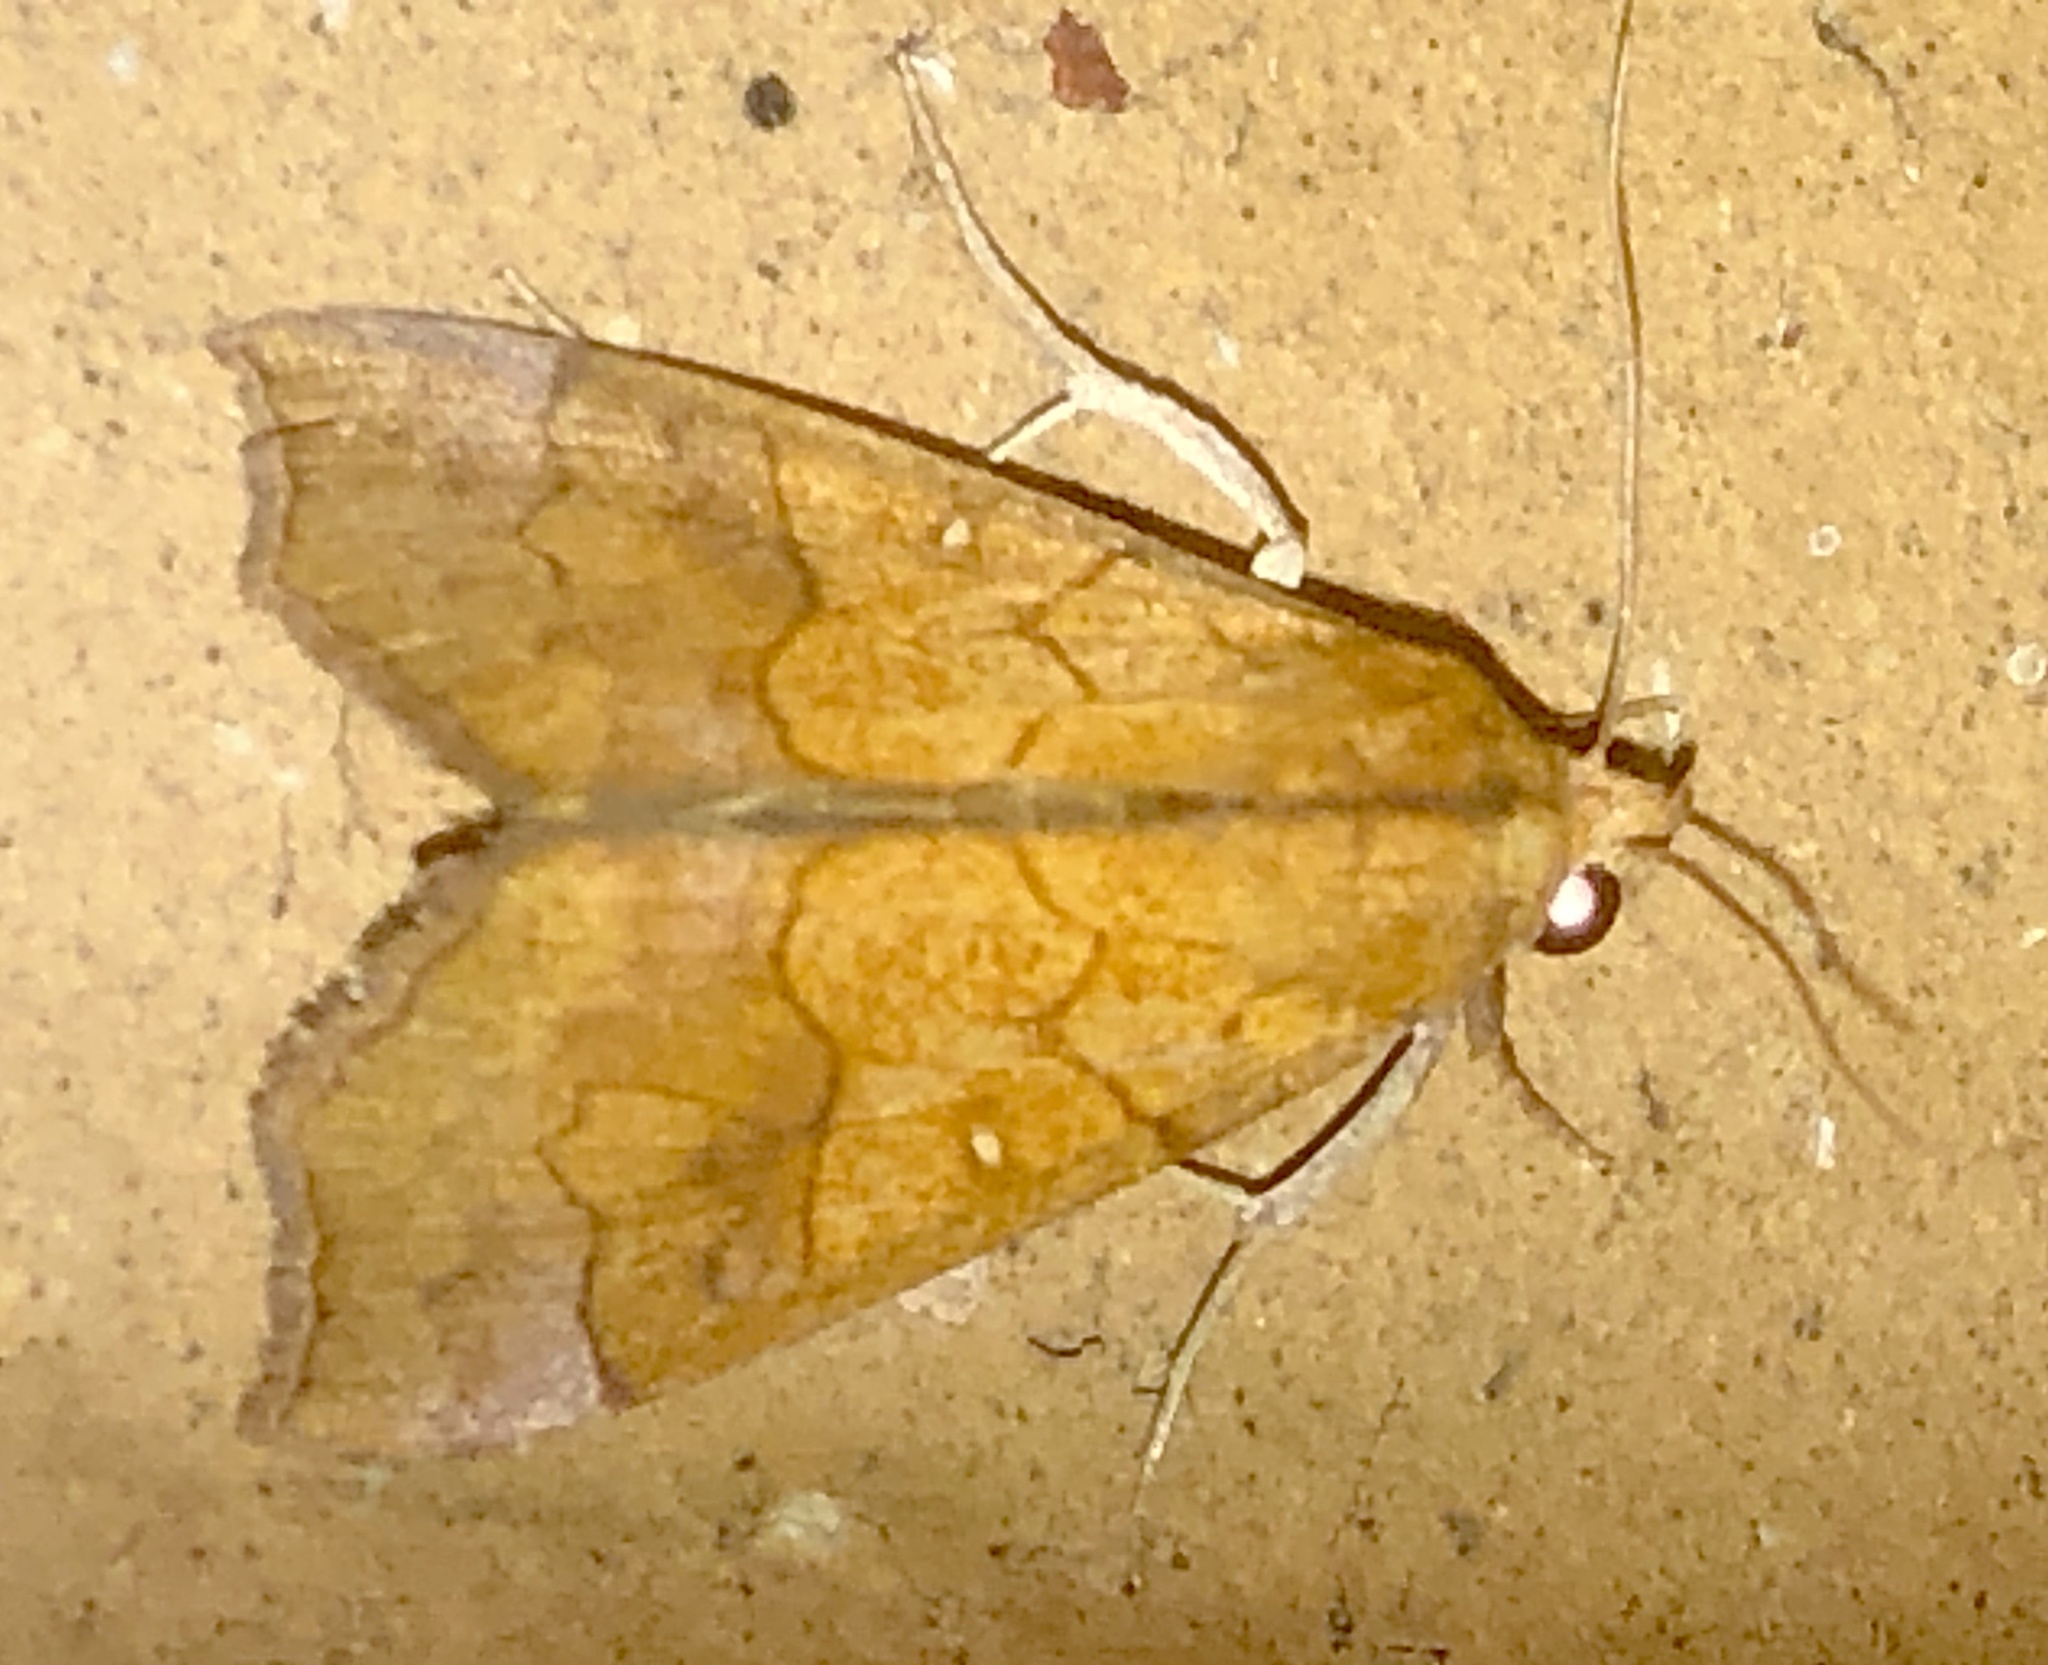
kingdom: Animalia
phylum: Arthropoda
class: Insecta
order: Lepidoptera
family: Erebidae
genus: Anomis
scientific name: Anomis flava
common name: Moth
